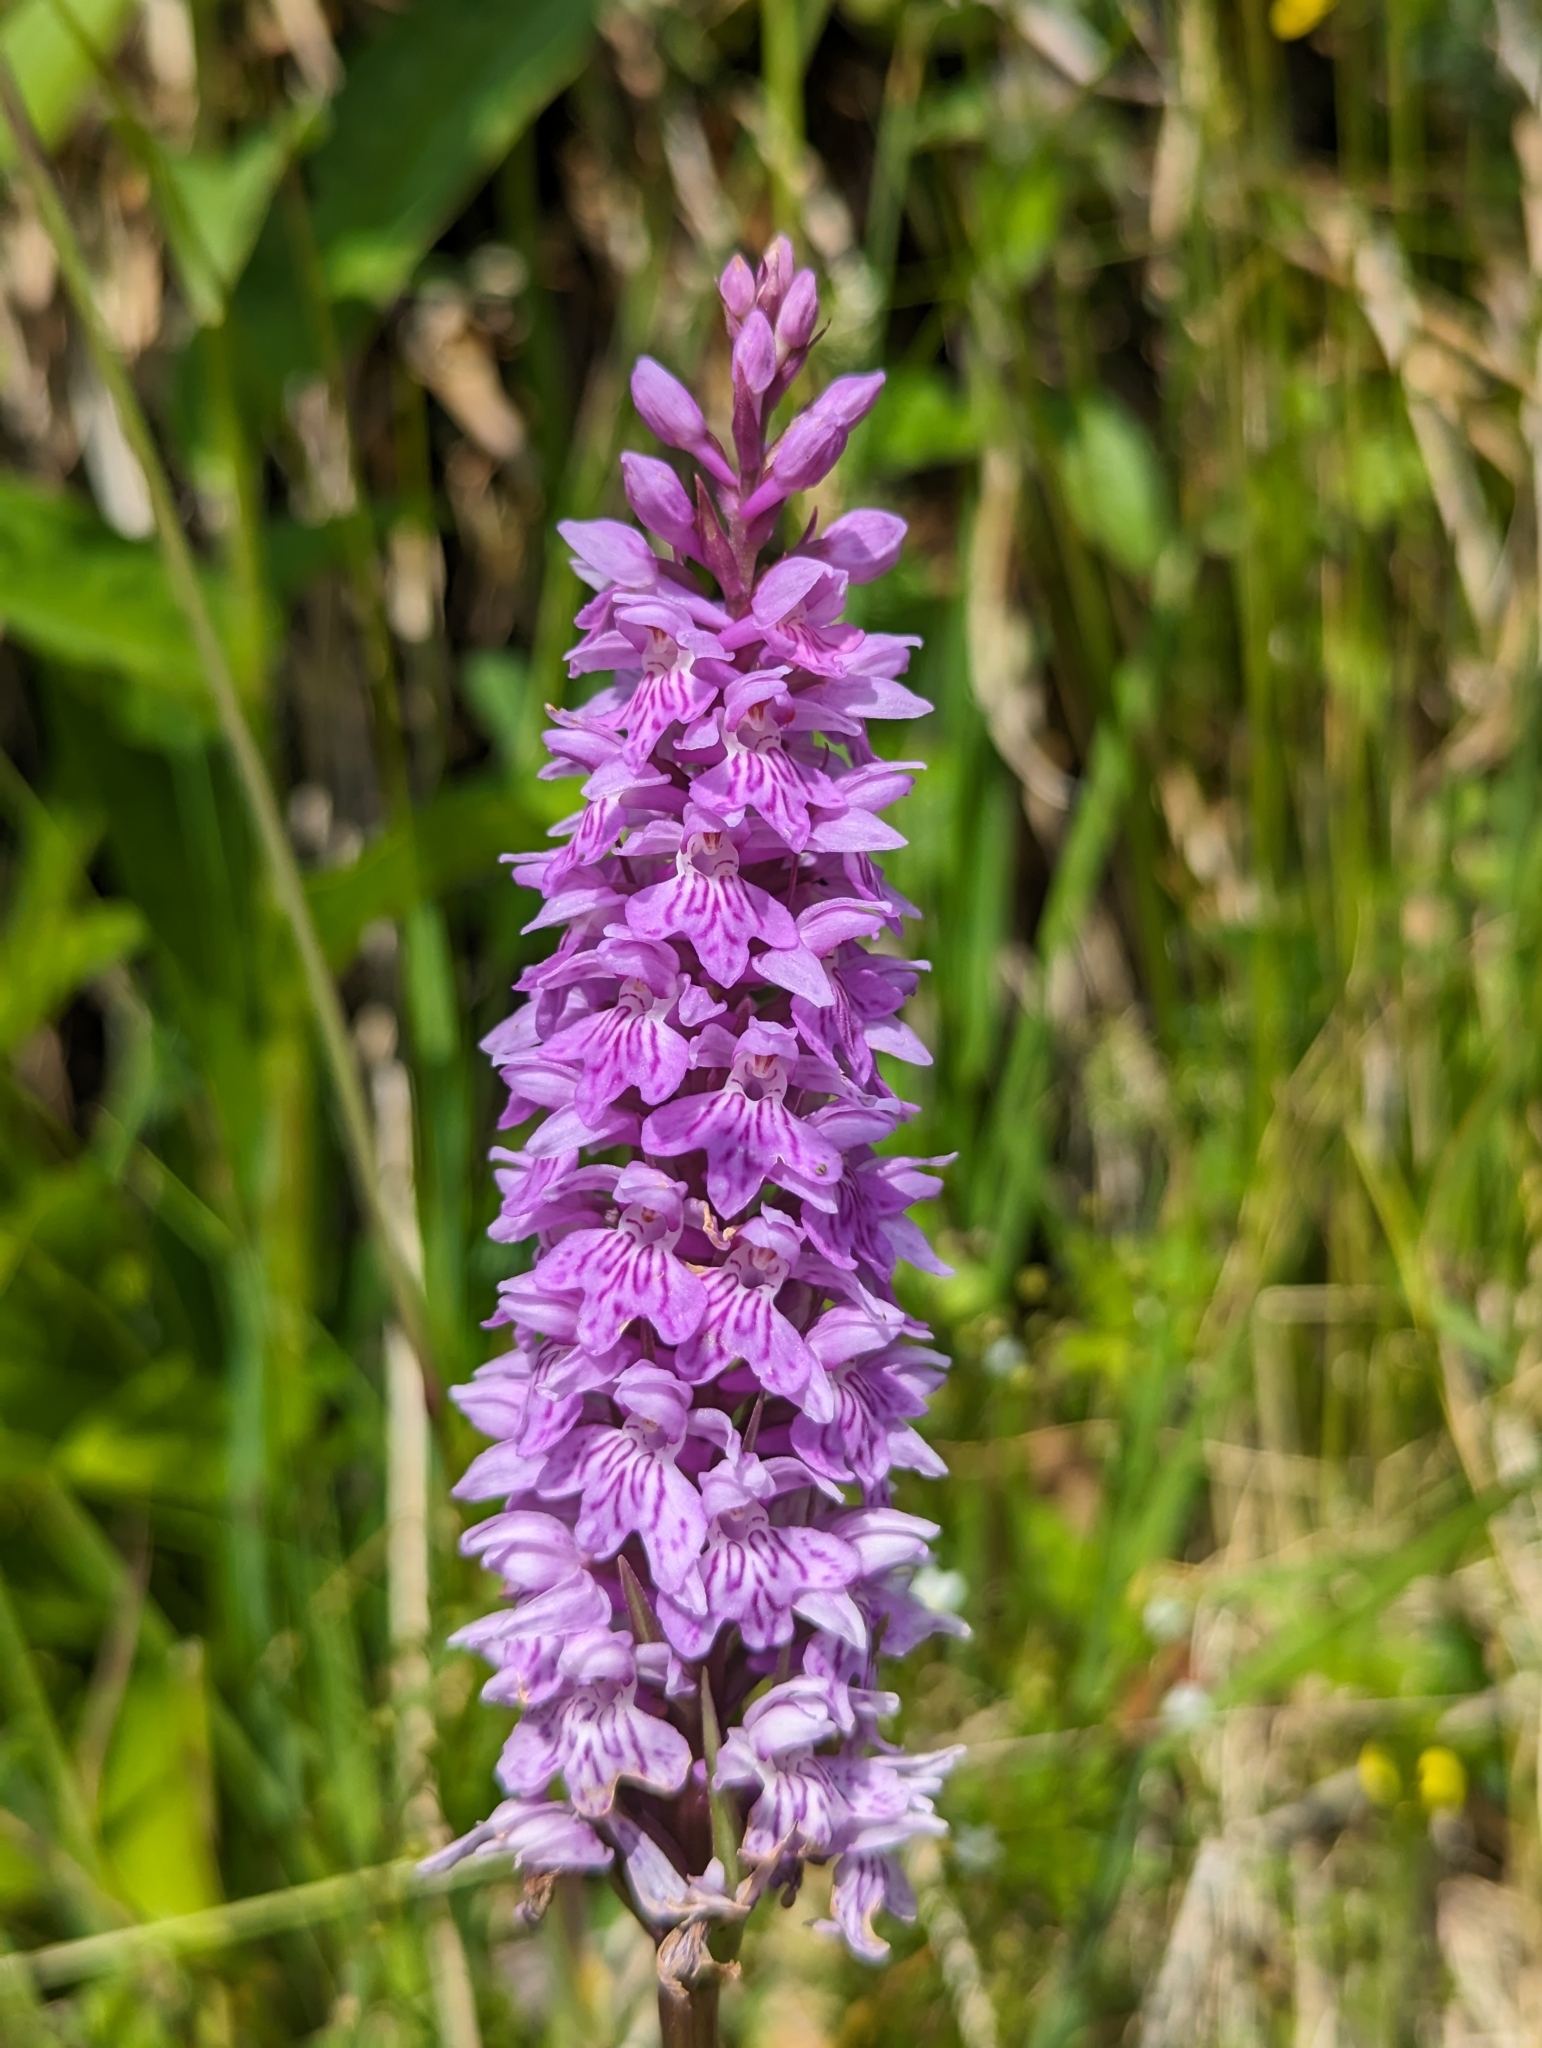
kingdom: Plantae
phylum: Tracheophyta
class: Liliopsida
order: Asparagales
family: Orchidaceae
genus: Dactylorhiza
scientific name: Dactylorhiza maculata
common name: Heath spotted-orchid
